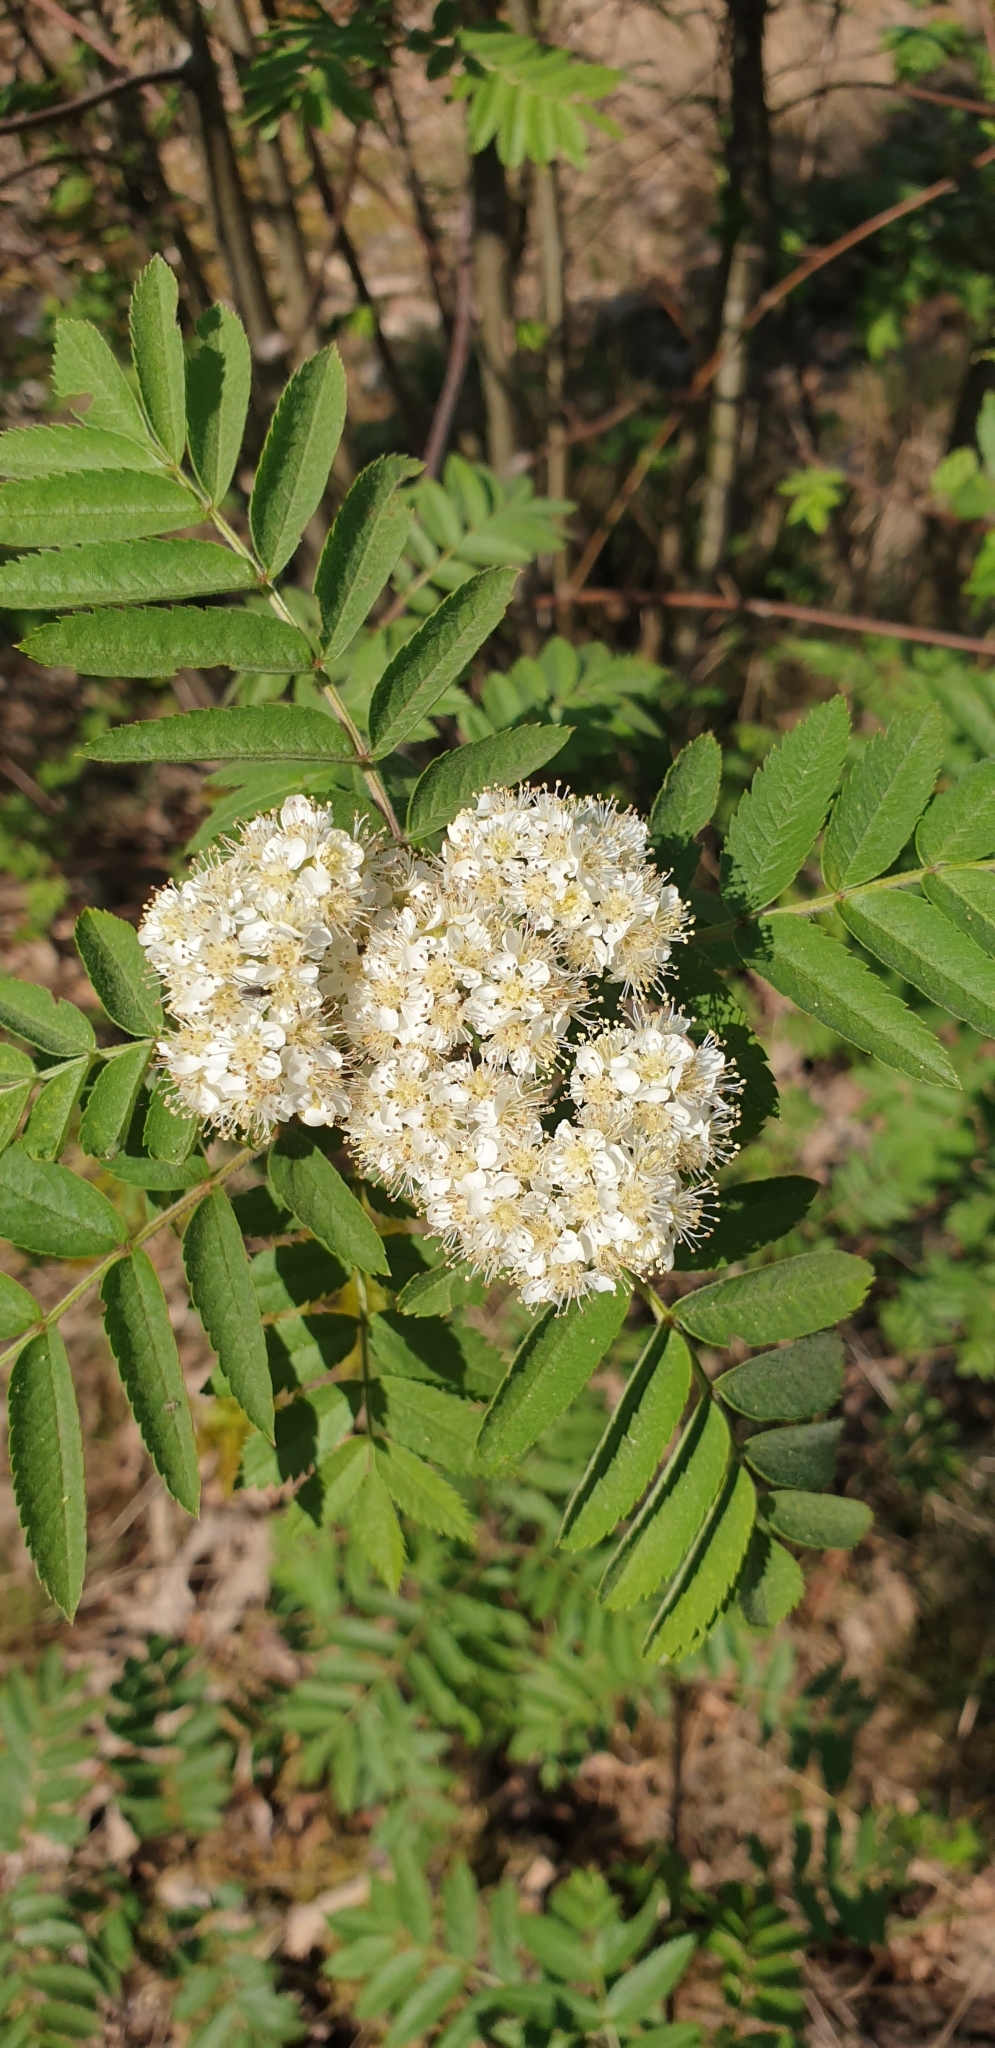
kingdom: Plantae
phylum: Tracheophyta
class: Magnoliopsida
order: Rosales
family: Rosaceae
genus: Sorbus
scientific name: Sorbus aucuparia
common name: Rowan
